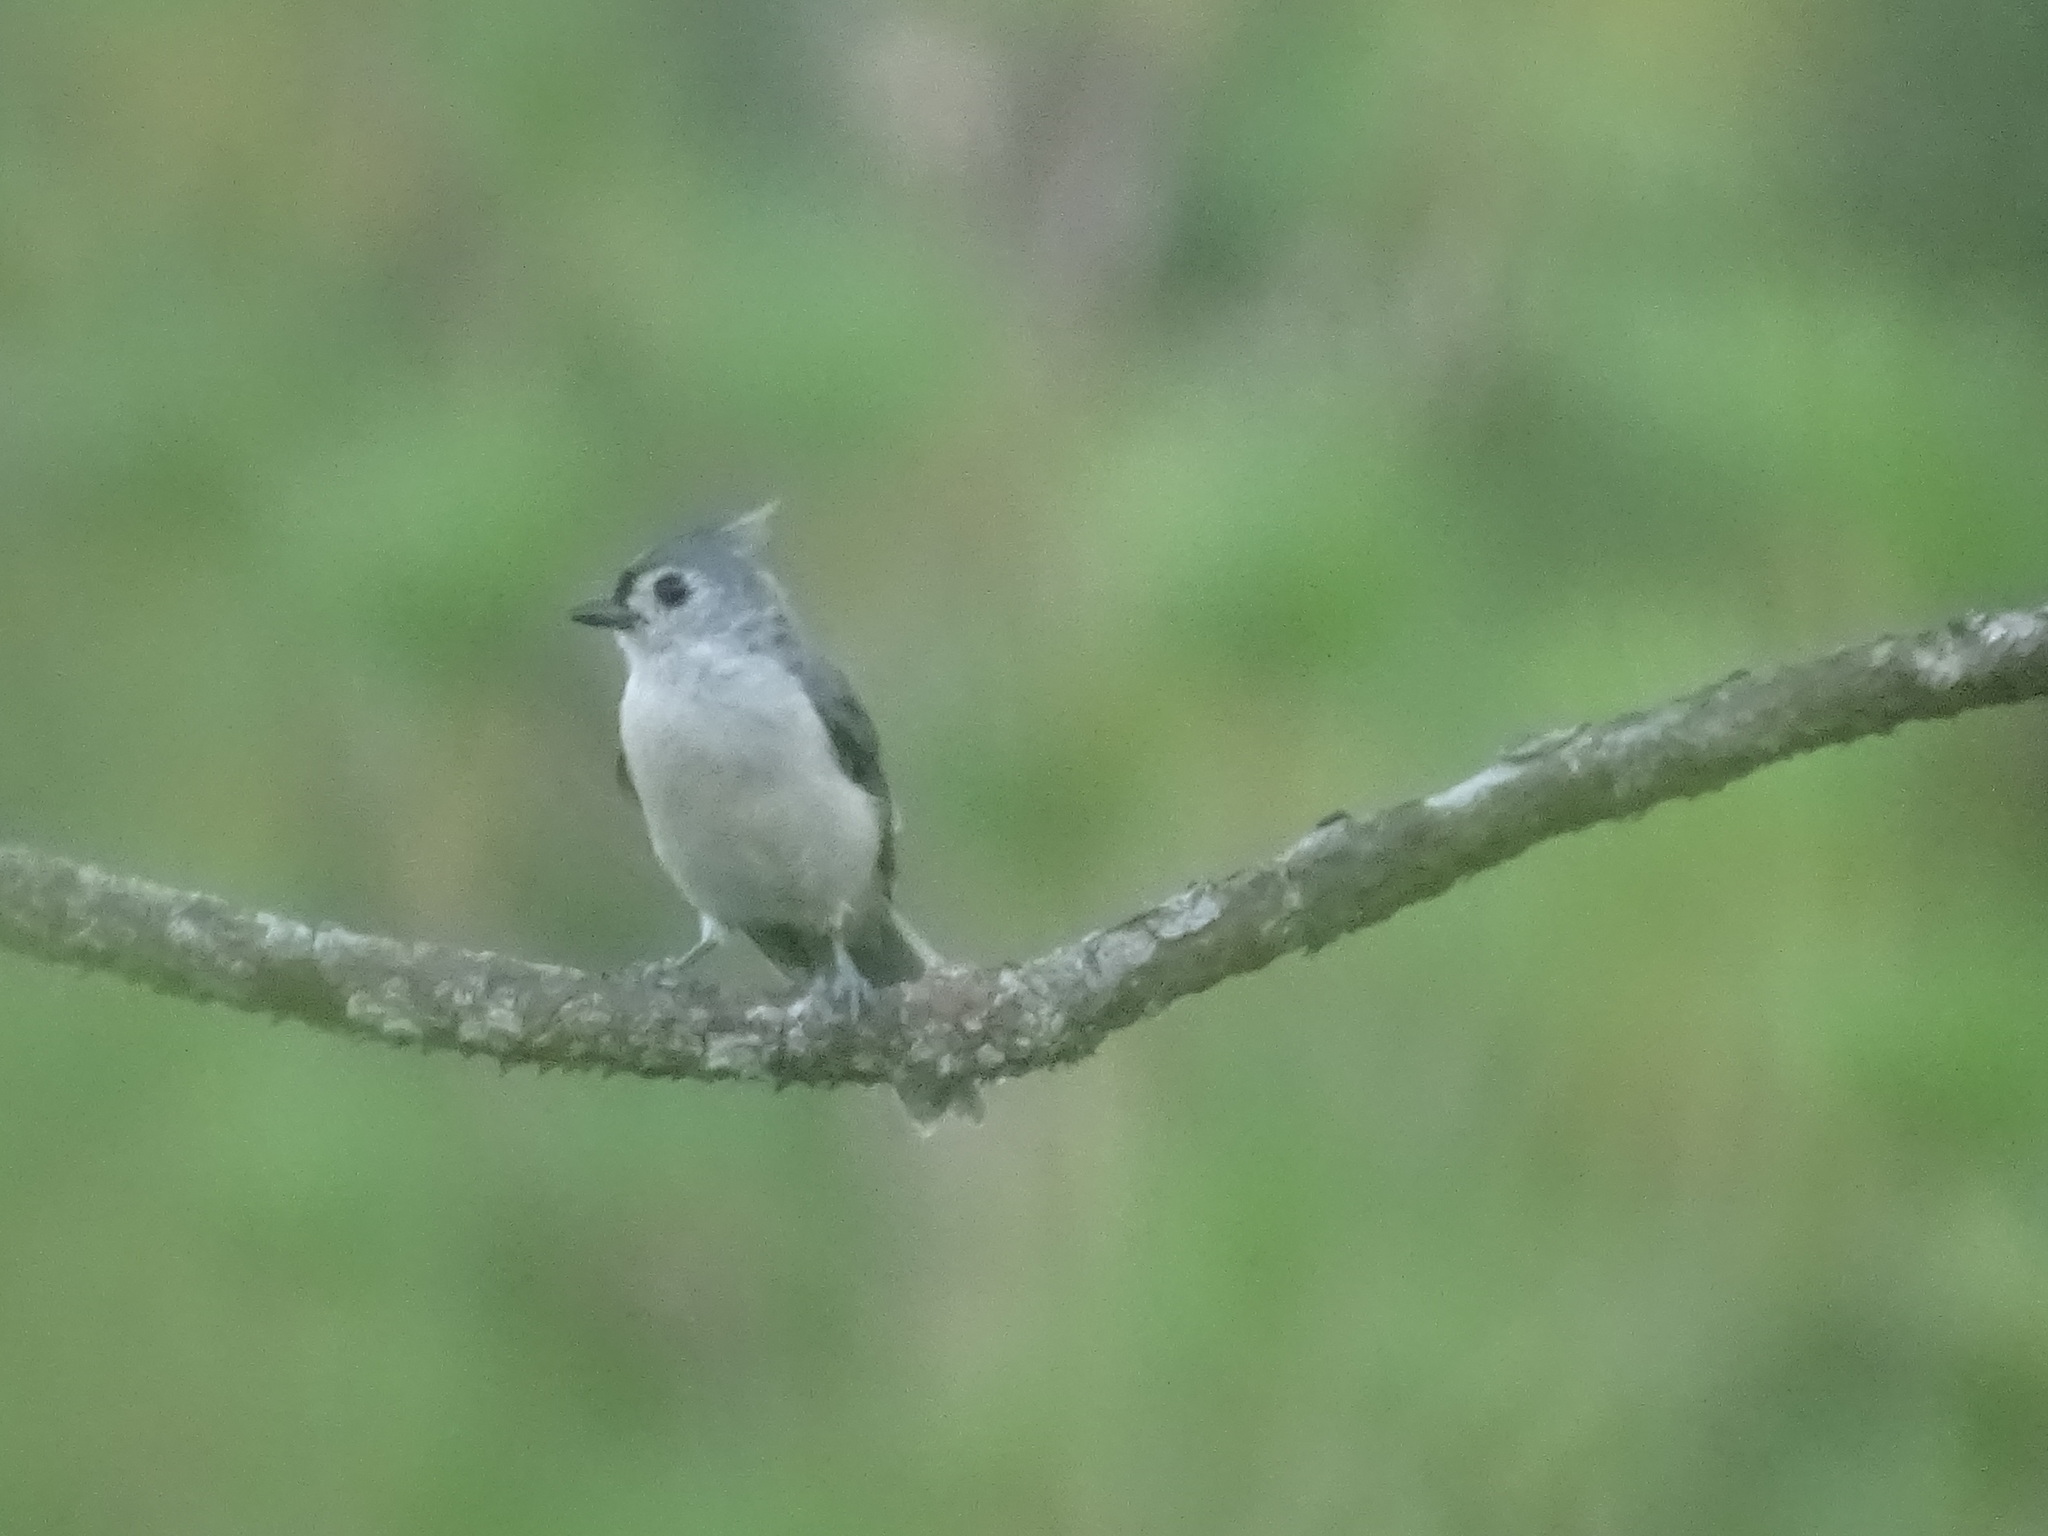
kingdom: Animalia
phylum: Chordata
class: Aves
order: Passeriformes
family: Paridae
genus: Baeolophus
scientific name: Baeolophus bicolor
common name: Tufted titmouse
